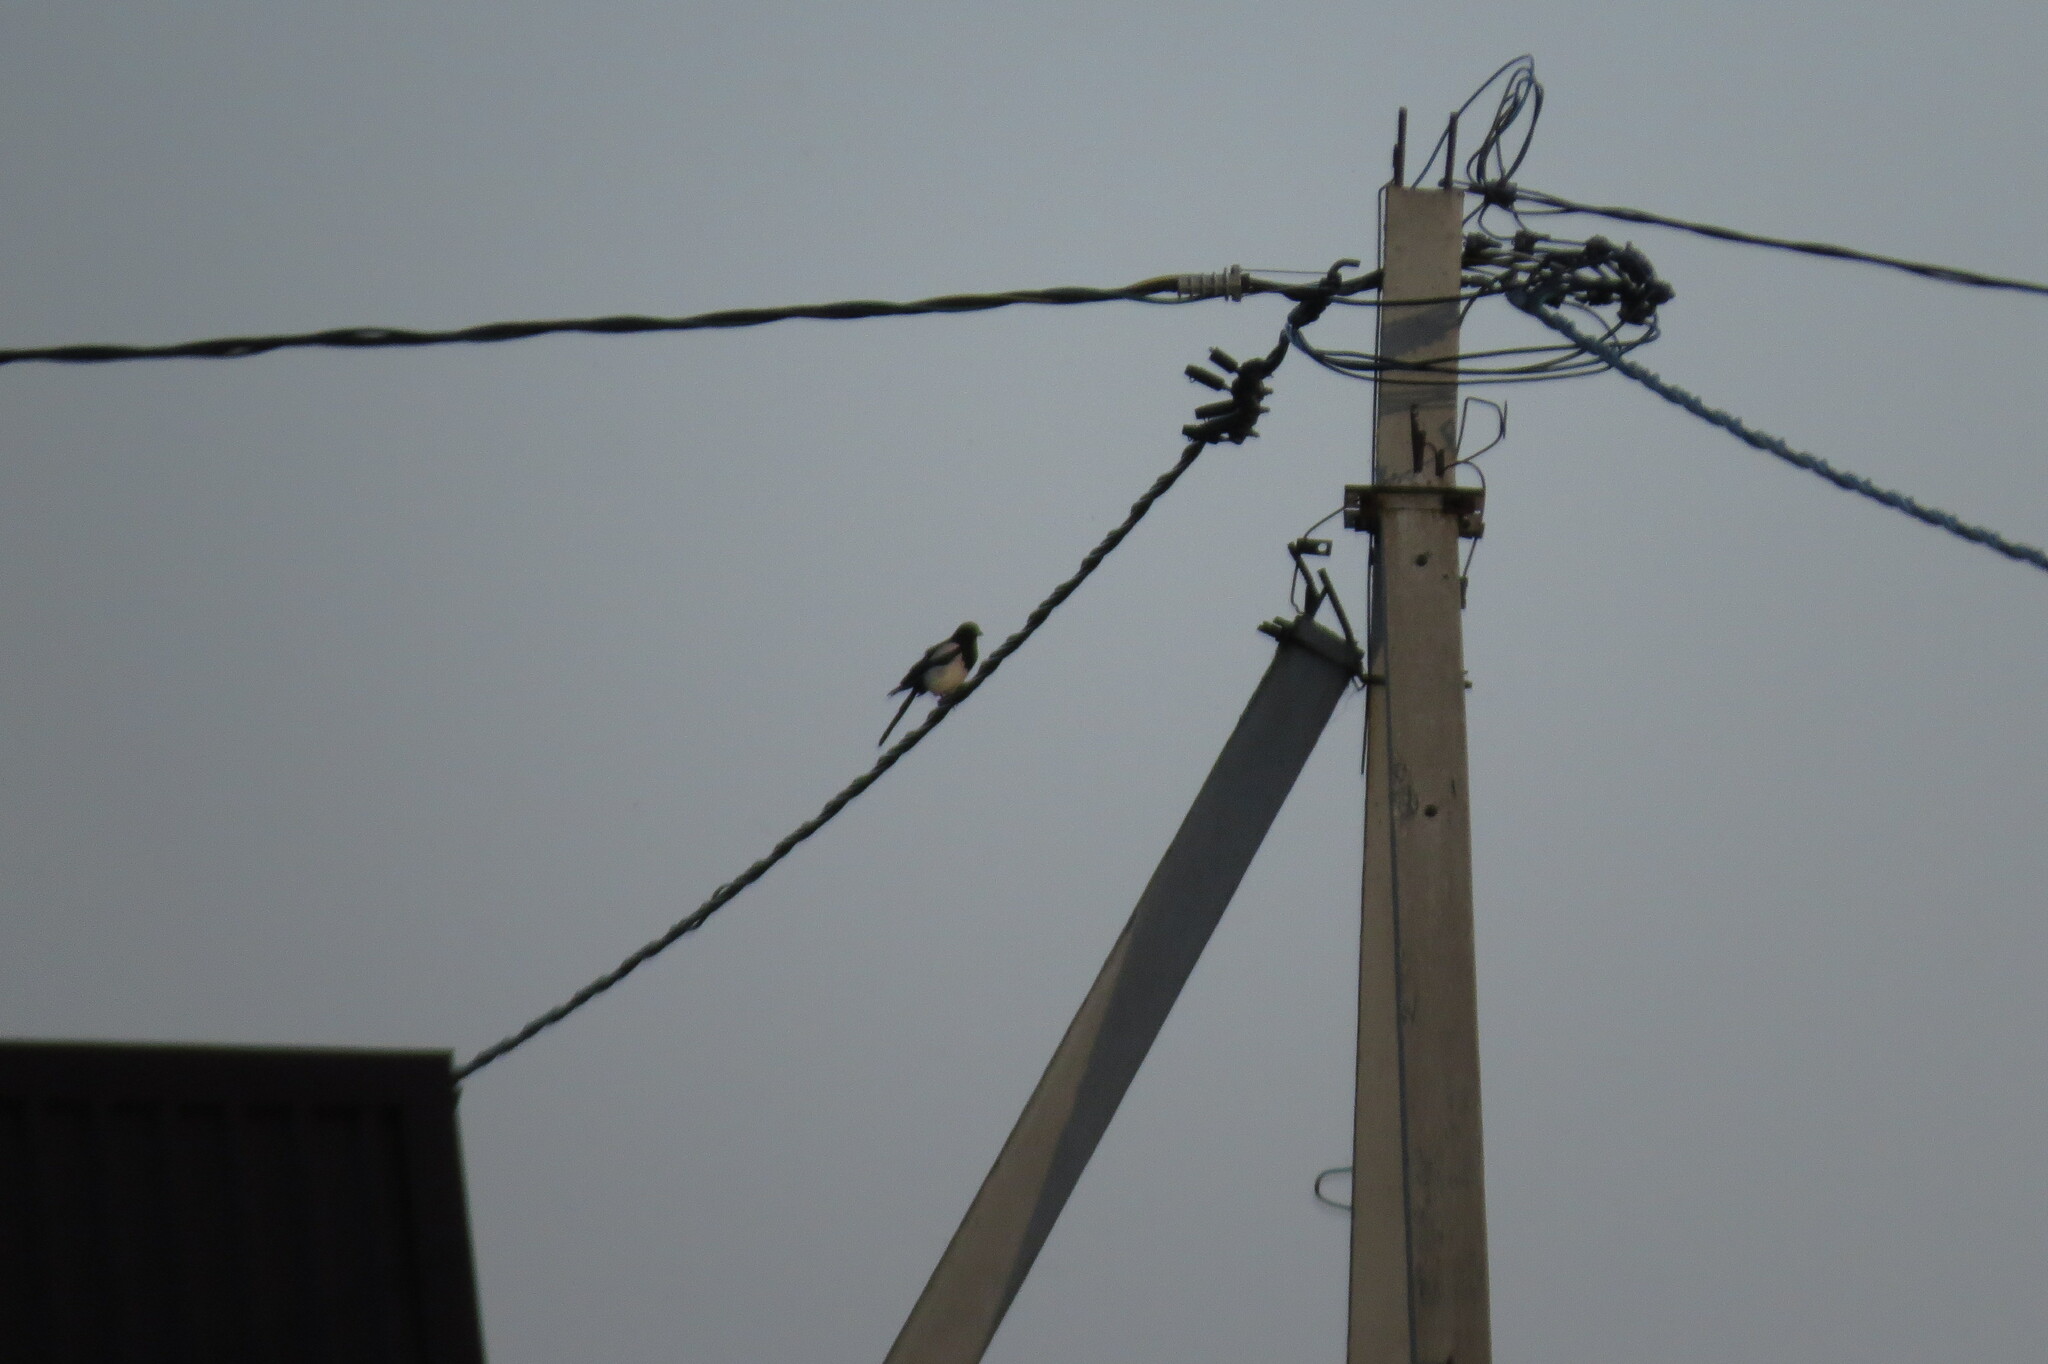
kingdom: Animalia
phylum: Chordata
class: Aves
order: Passeriformes
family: Corvidae
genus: Pica
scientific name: Pica pica
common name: Eurasian magpie
